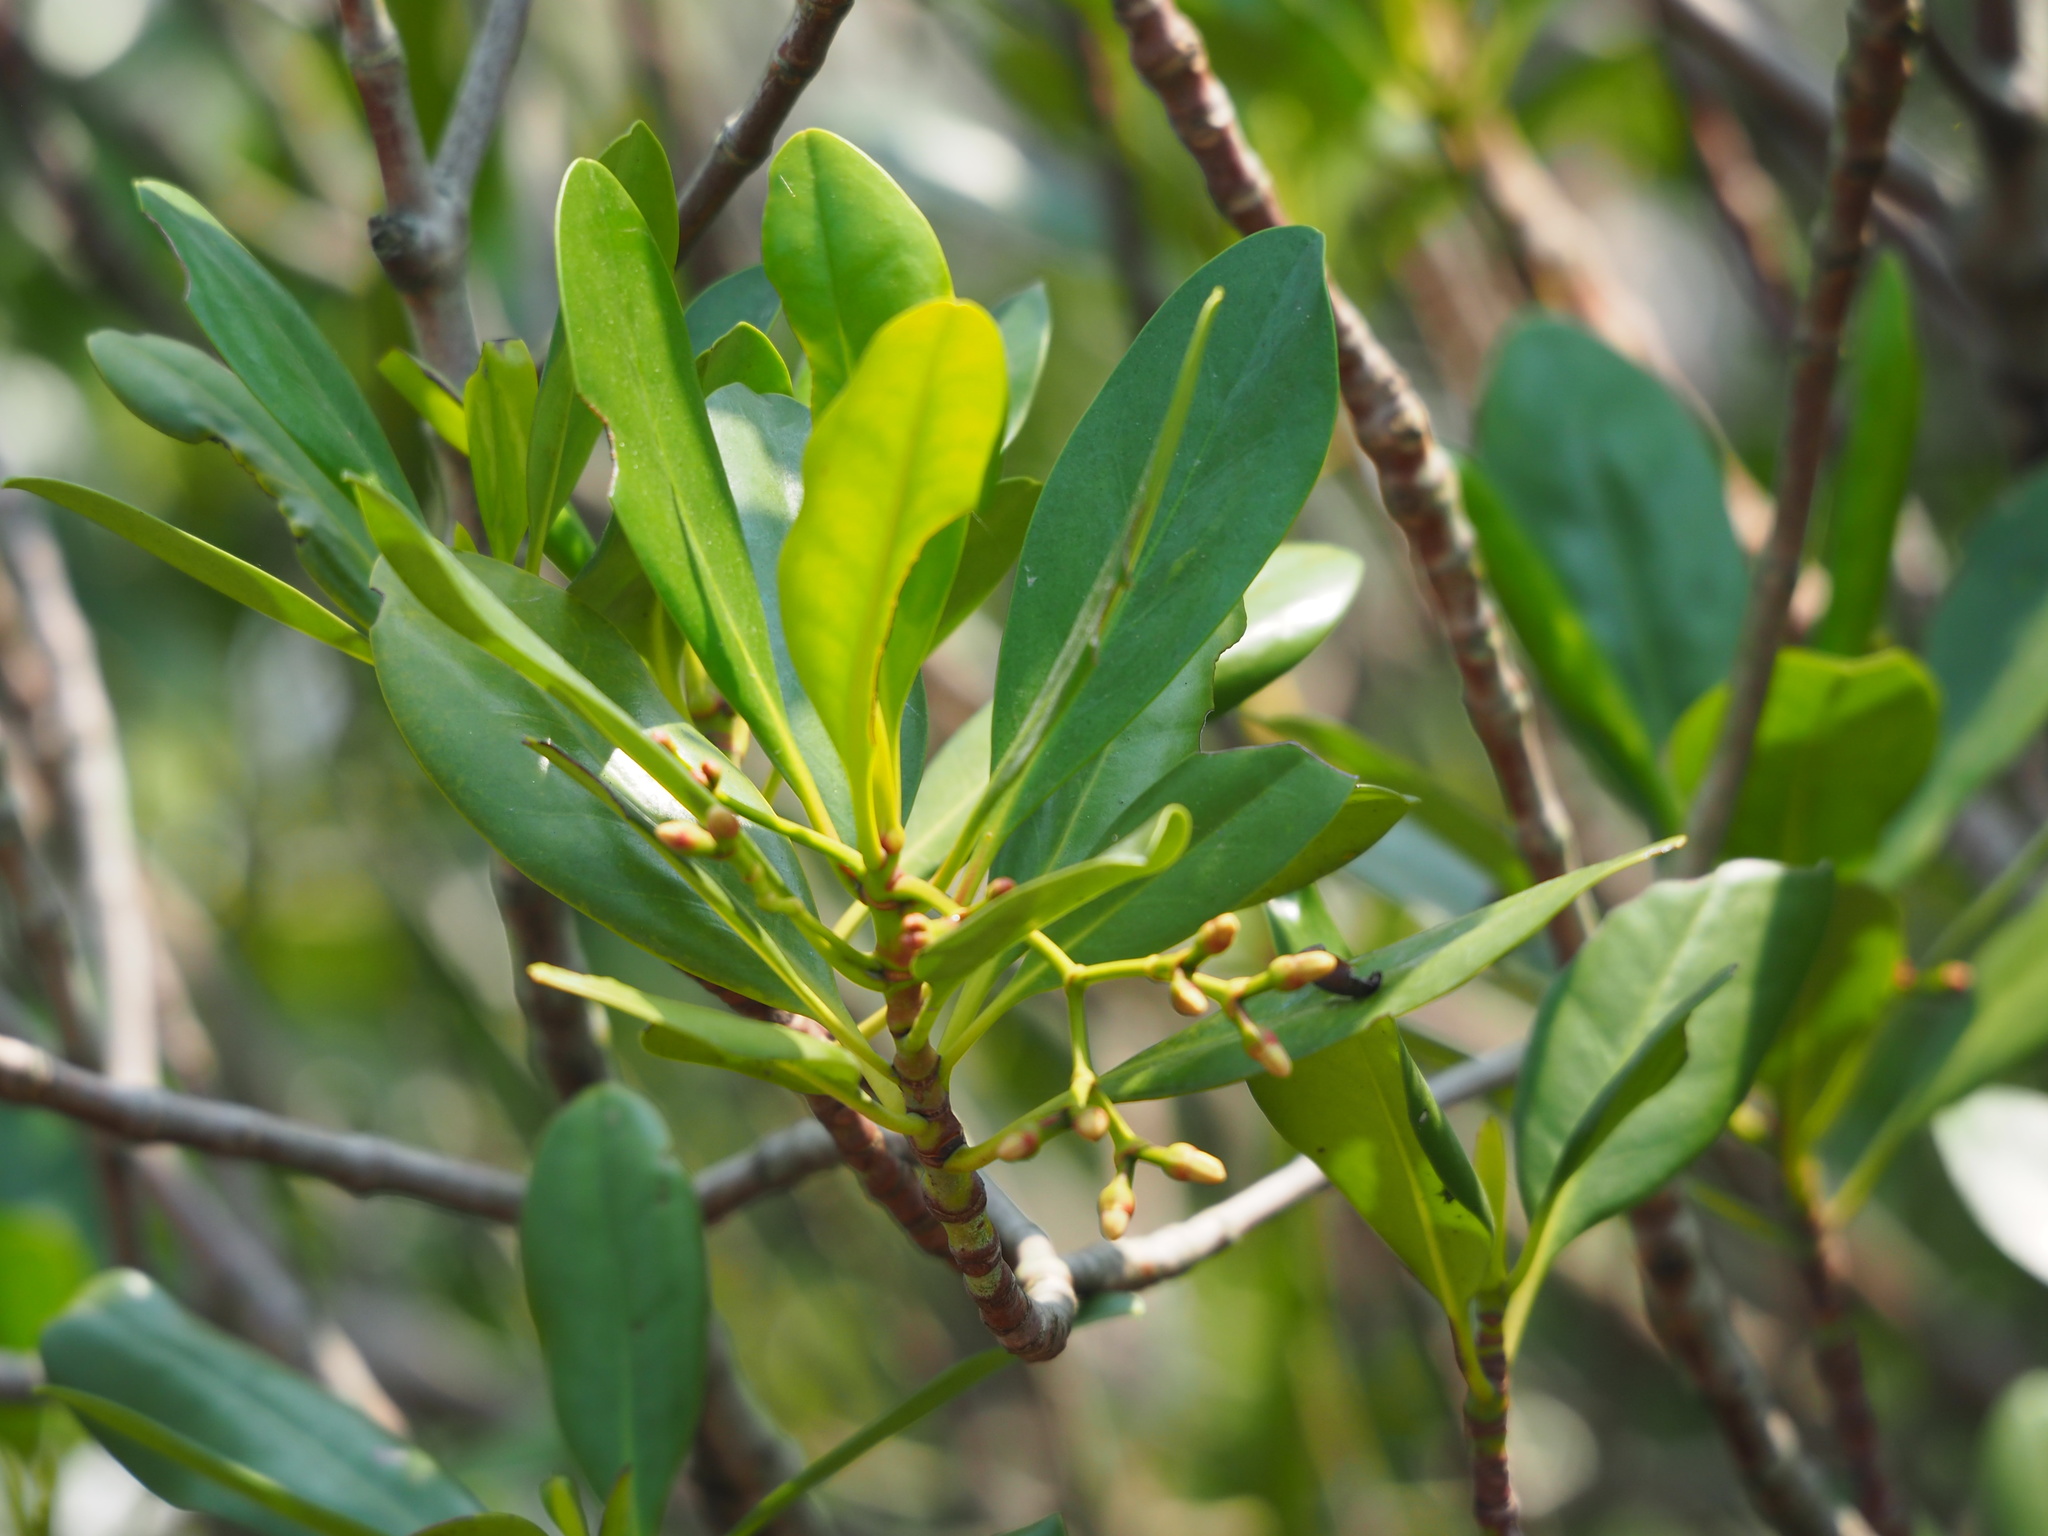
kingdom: Plantae
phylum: Tracheophyta
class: Magnoliopsida
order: Malpighiales
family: Rhizophoraceae
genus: Kandelia
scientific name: Kandelia obovata
